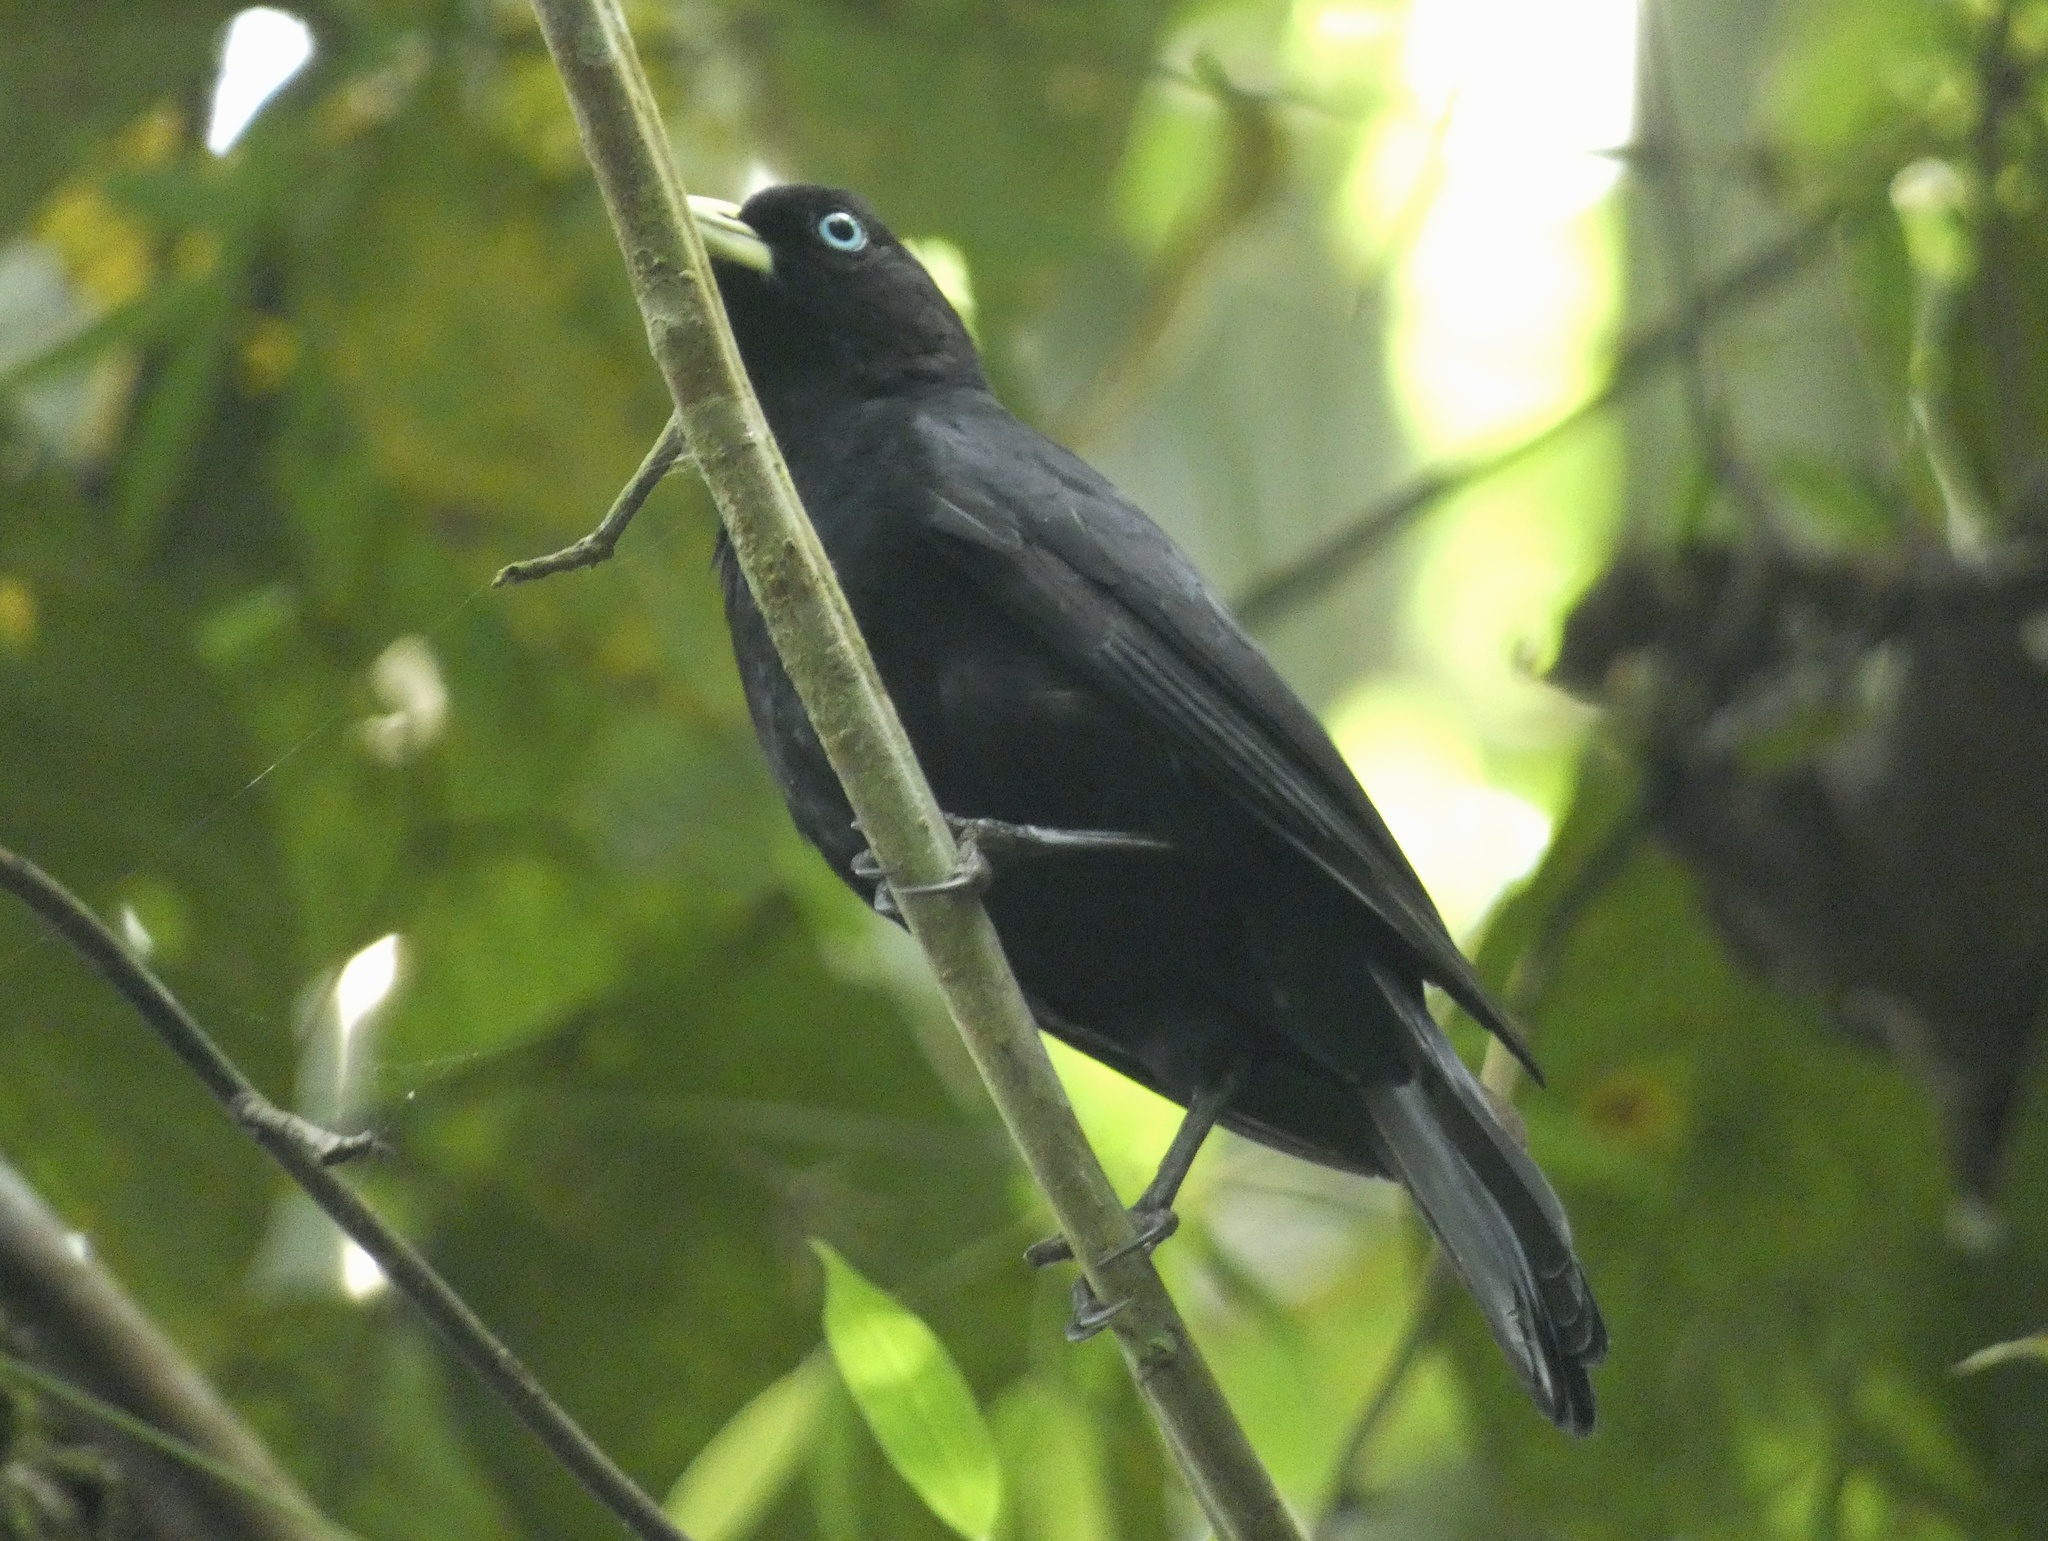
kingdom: Animalia
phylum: Chordata
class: Aves
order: Passeriformes
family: Icteridae
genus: Cacicus
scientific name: Cacicus uropygialis
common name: Scarlet-rumped cacique
